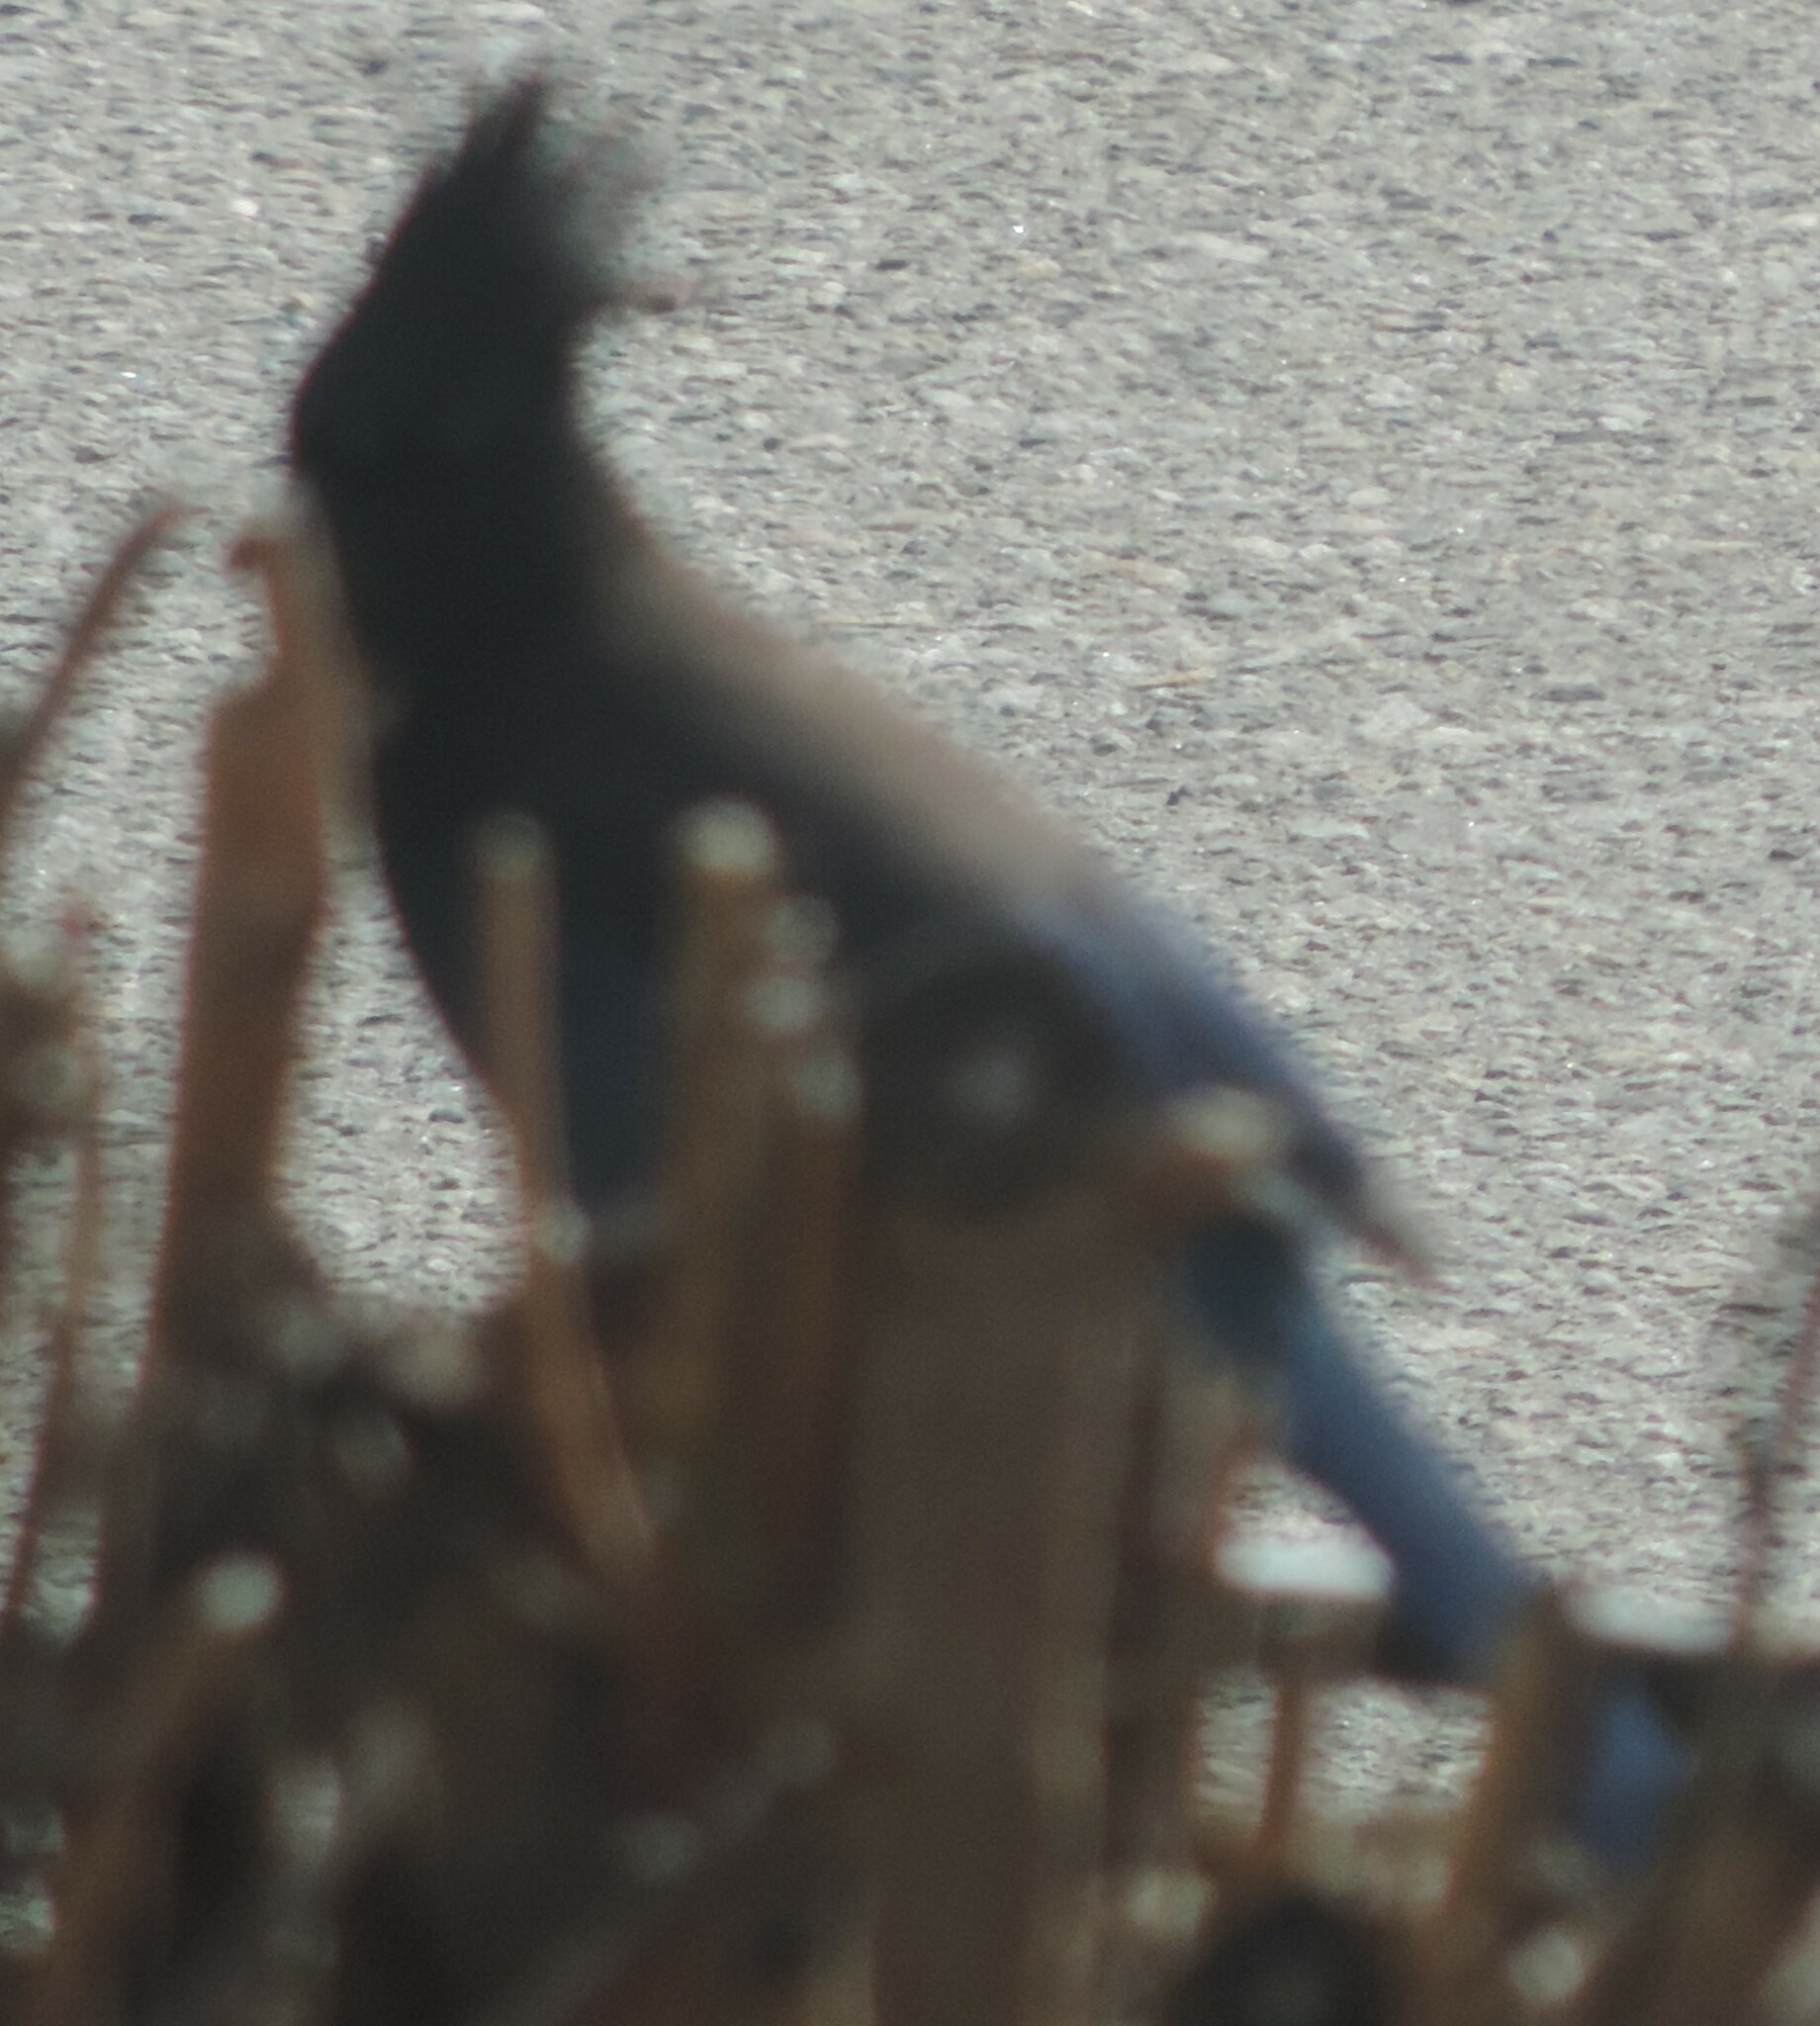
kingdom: Animalia
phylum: Chordata
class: Aves
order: Passeriformes
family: Corvidae
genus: Cyanocitta
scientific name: Cyanocitta stelleri
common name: Steller's jay
